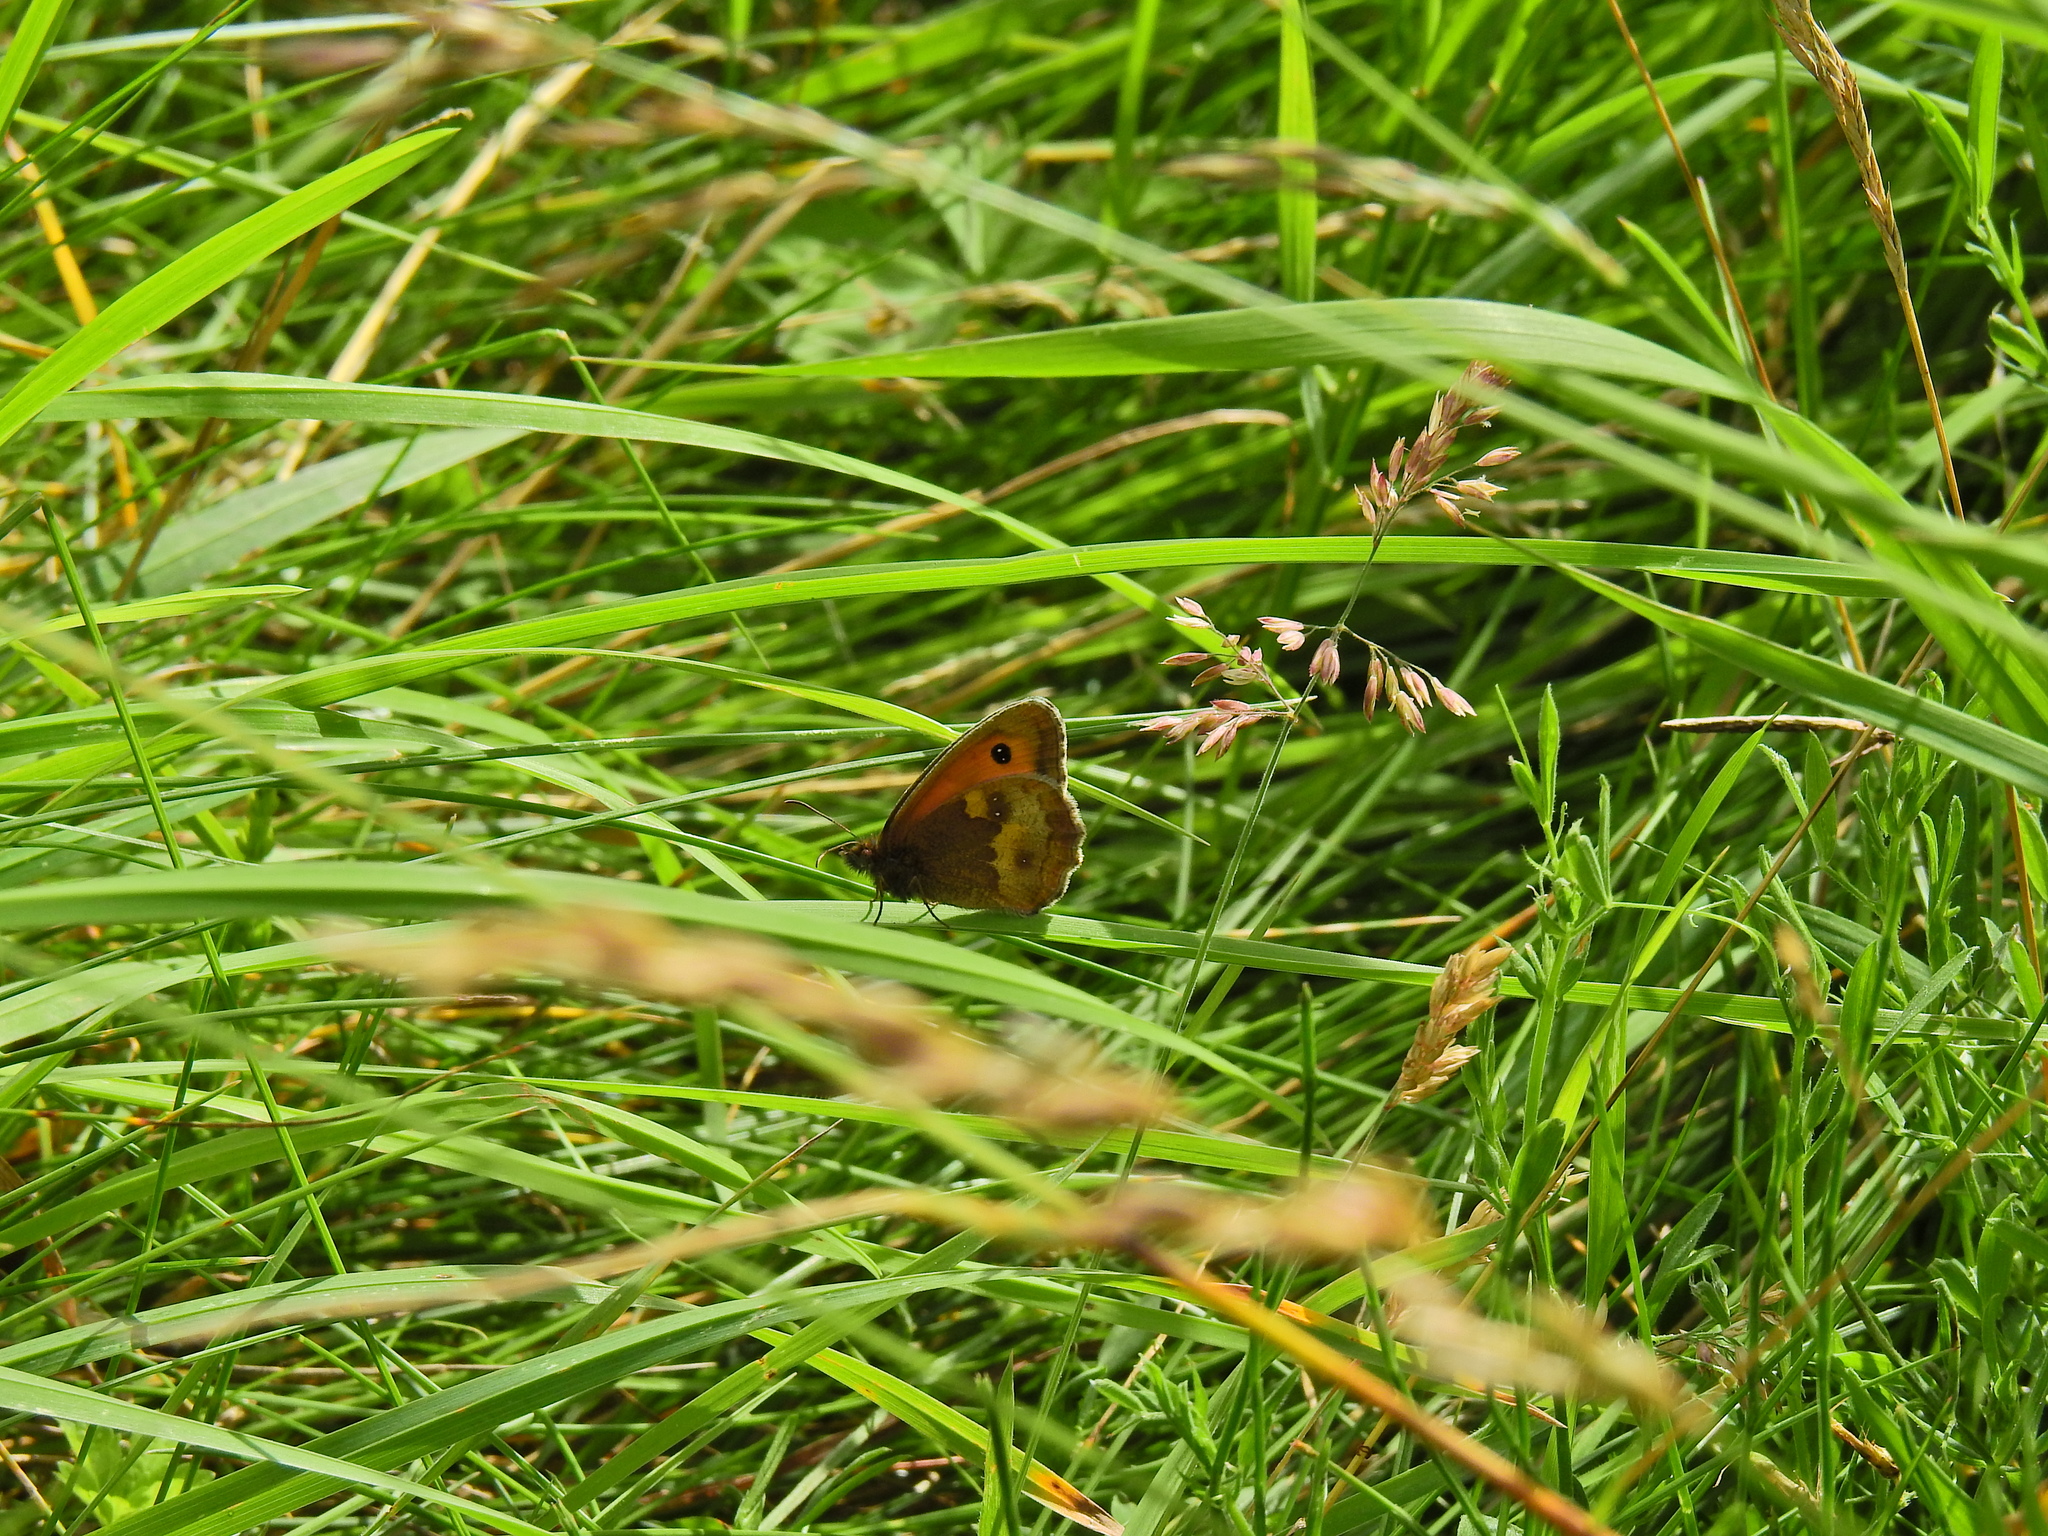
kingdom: Animalia
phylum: Arthropoda
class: Insecta
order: Lepidoptera
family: Nymphalidae
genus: Pyronia
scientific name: Pyronia tithonus
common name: Gatekeeper
